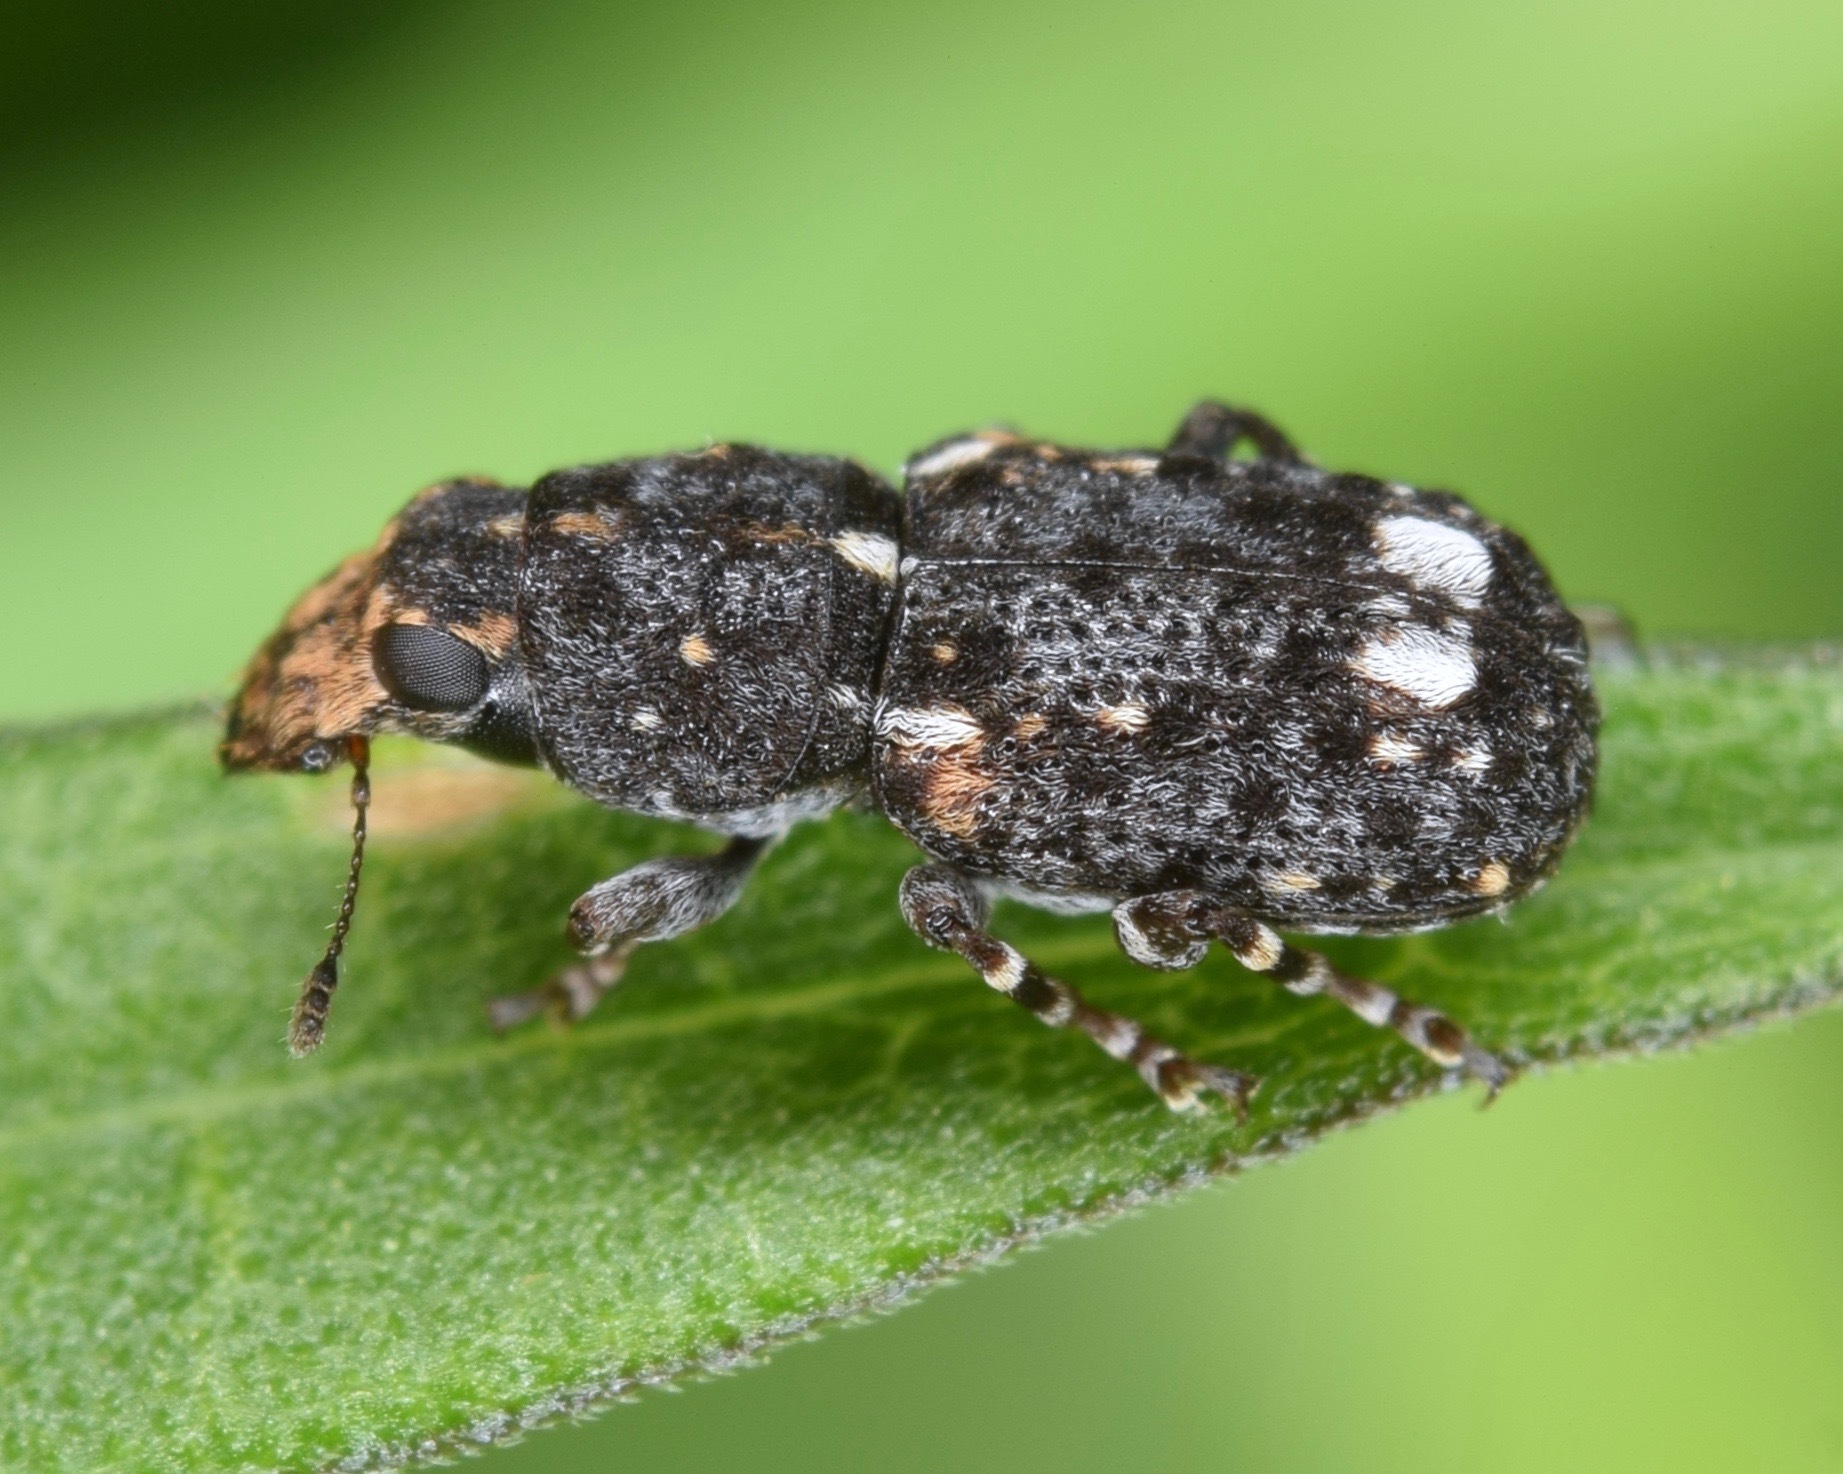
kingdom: Animalia
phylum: Arthropoda
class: Insecta
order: Coleoptera
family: Anthribidae
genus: Goniocloeus
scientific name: Goniocloeus bimaculatus
